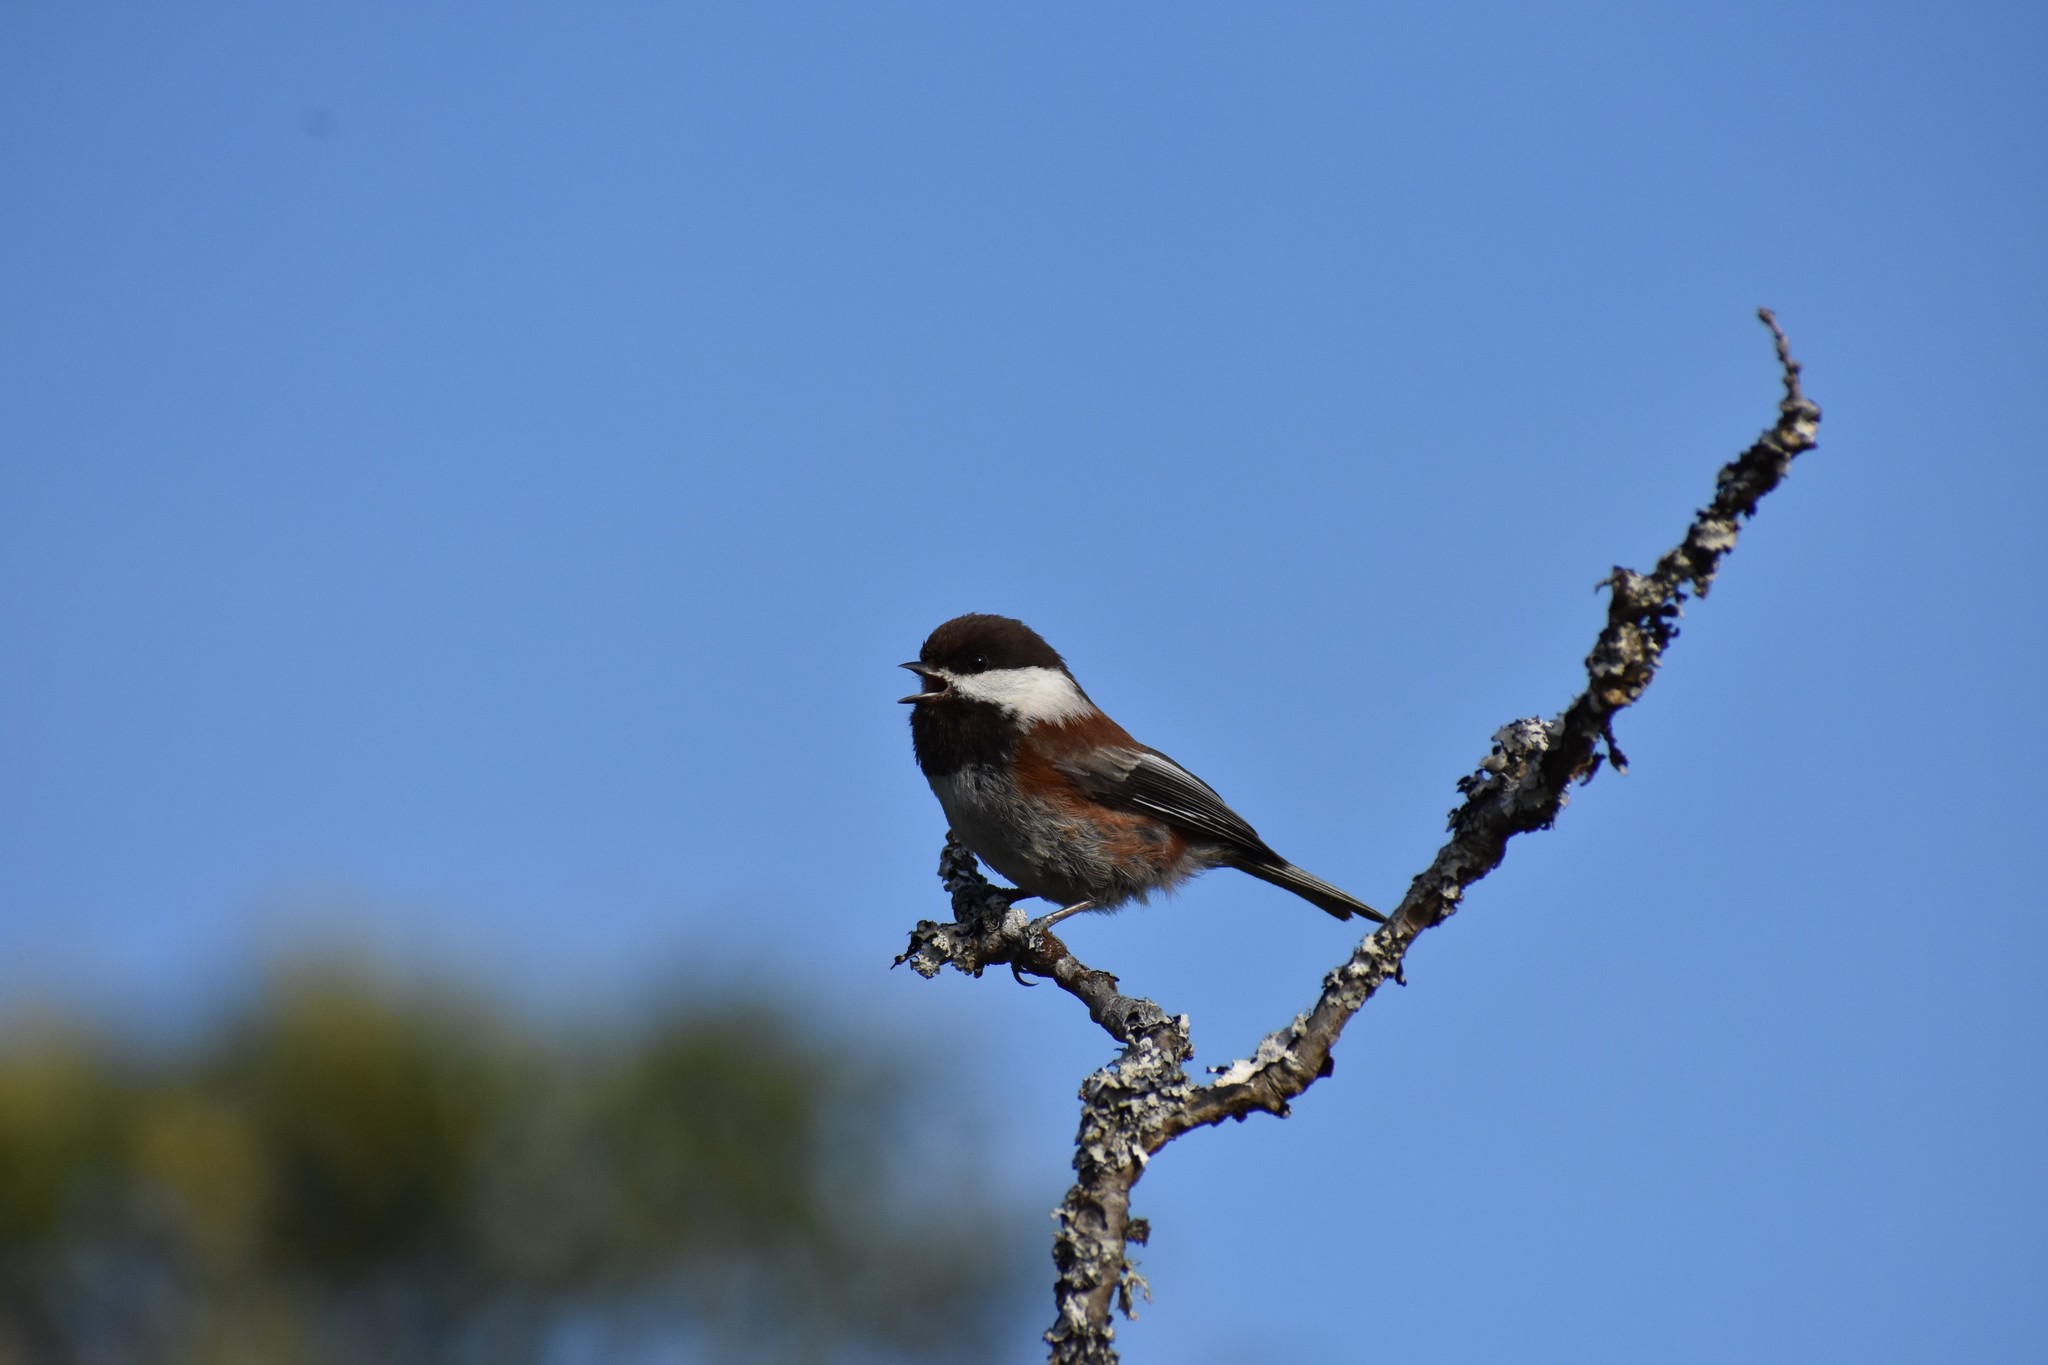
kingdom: Animalia
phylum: Chordata
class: Aves
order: Passeriformes
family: Paridae
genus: Poecile
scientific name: Poecile rufescens
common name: Chestnut-backed chickadee
